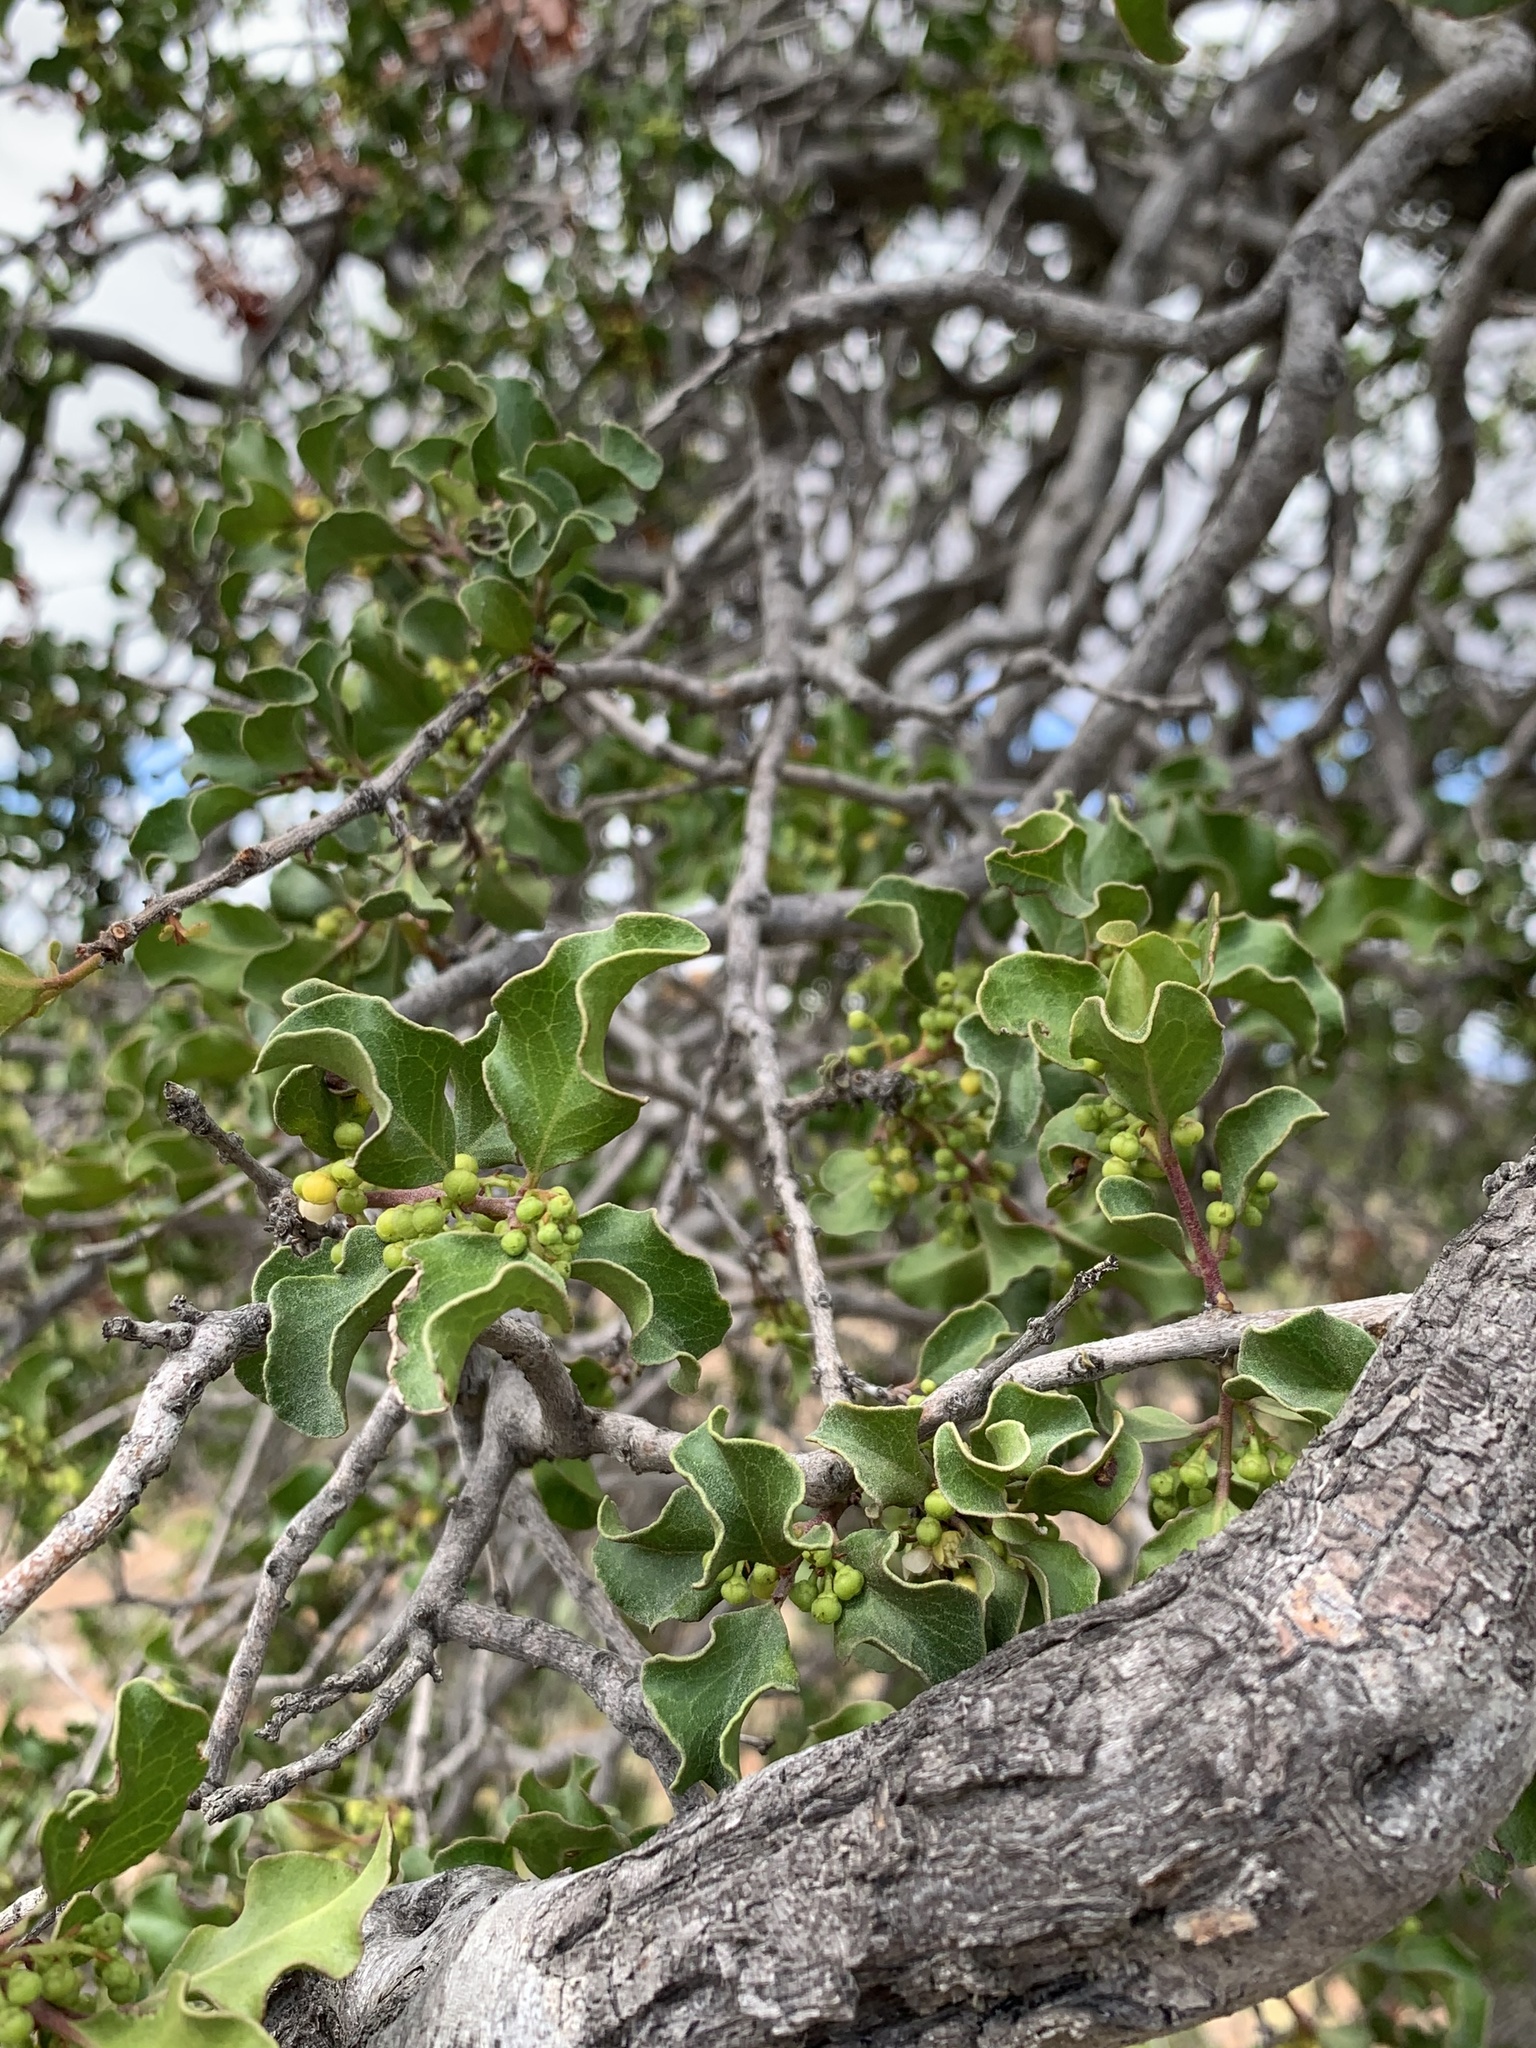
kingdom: Plantae
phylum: Tracheophyta
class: Magnoliopsida
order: Ericales
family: Ebenaceae
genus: Euclea
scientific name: Euclea undulata
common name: Small-leaved guarri
